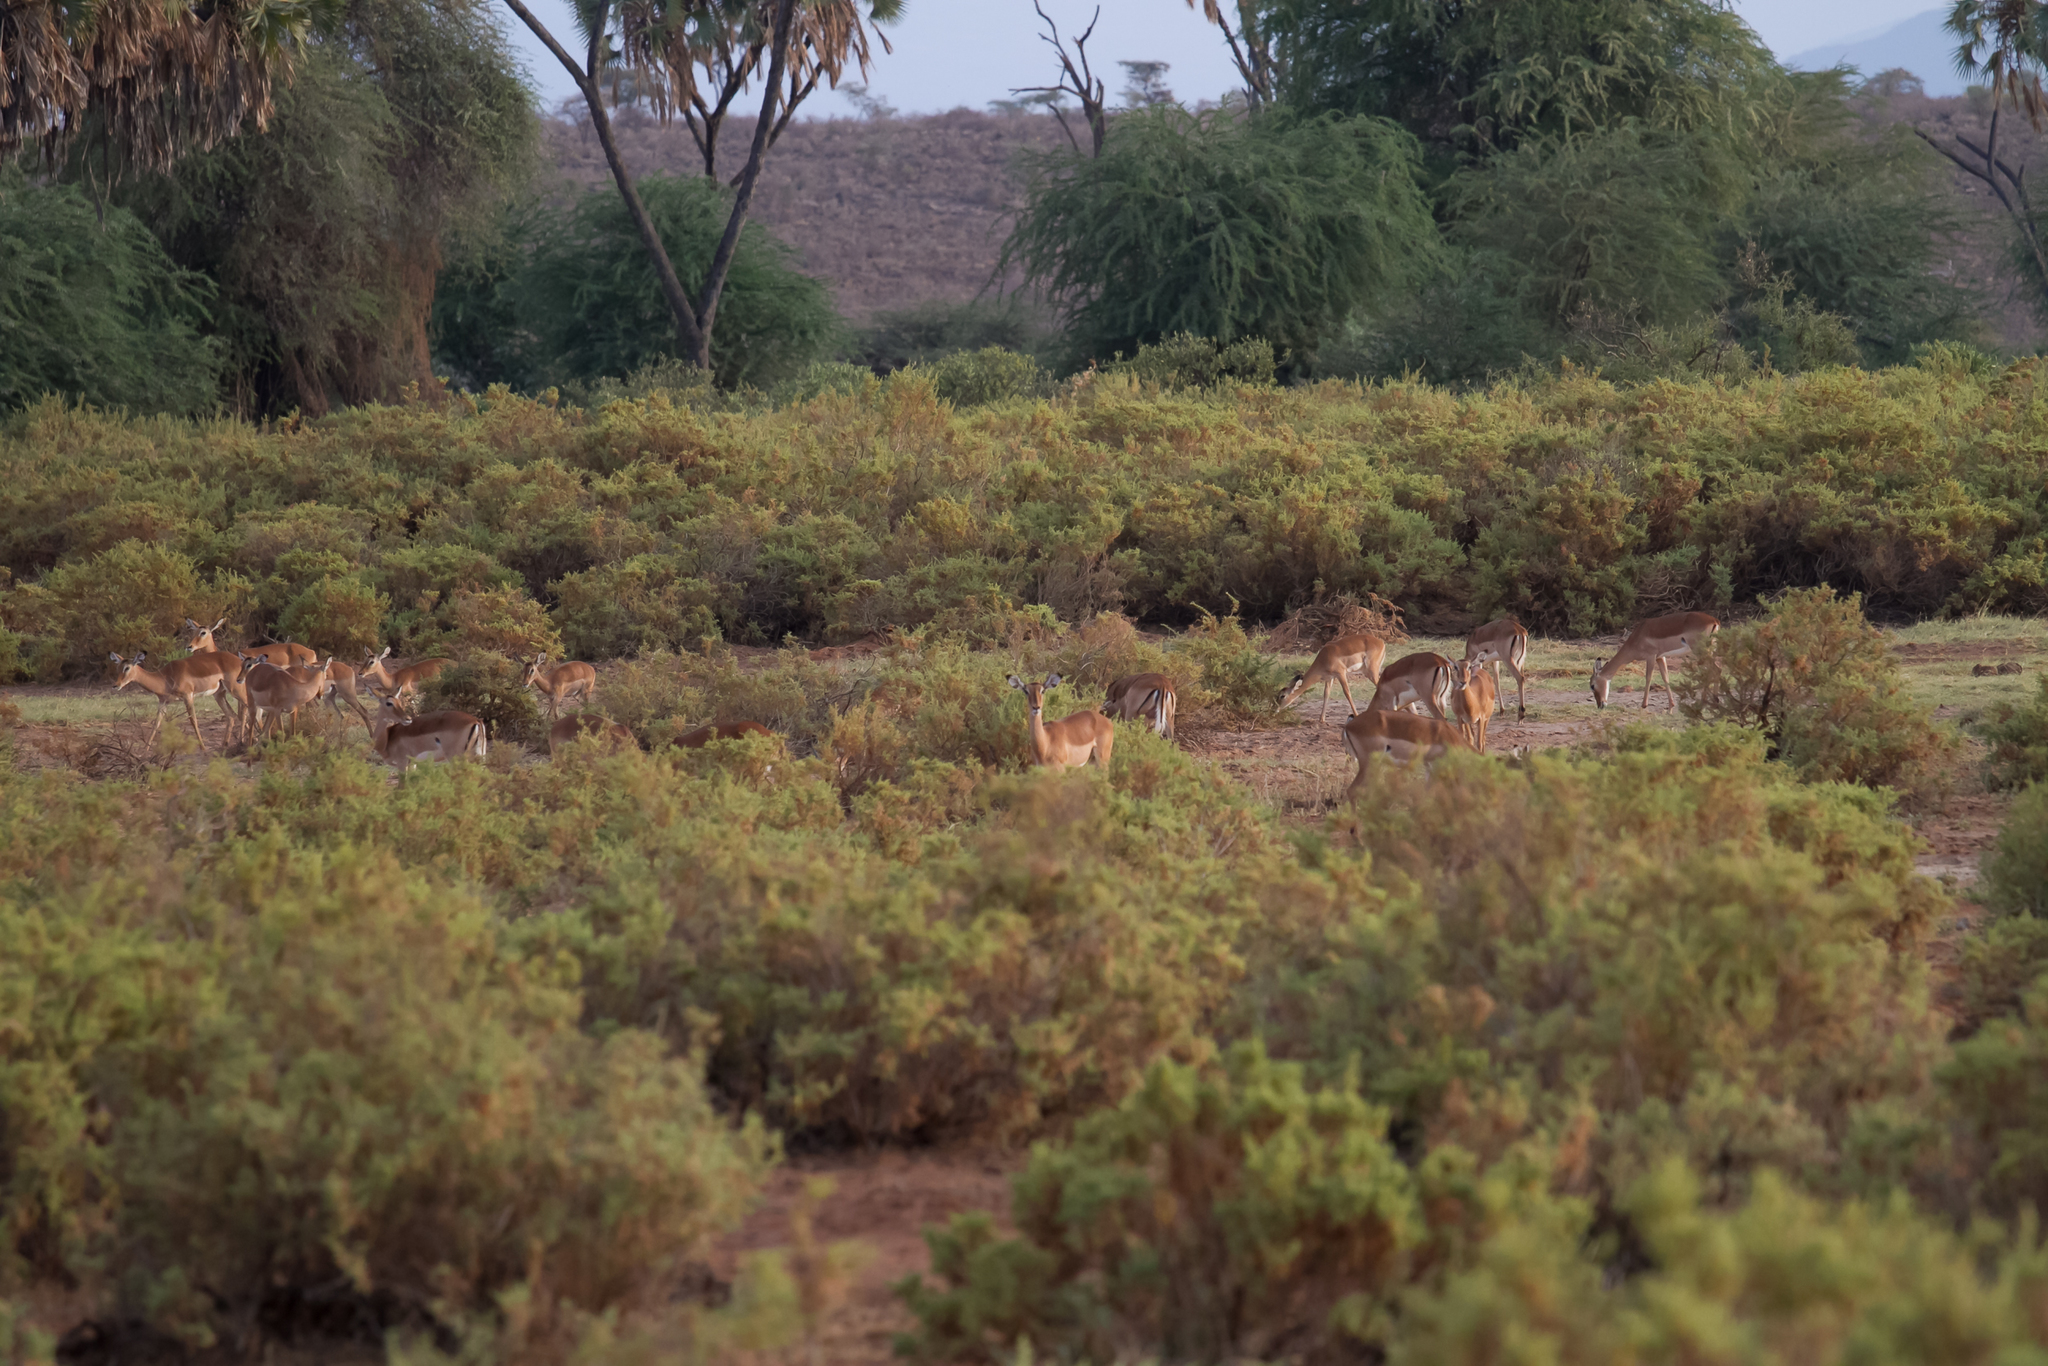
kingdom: Animalia
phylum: Chordata
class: Mammalia
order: Artiodactyla
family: Bovidae
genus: Aepyceros
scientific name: Aepyceros melampus
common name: Impala
